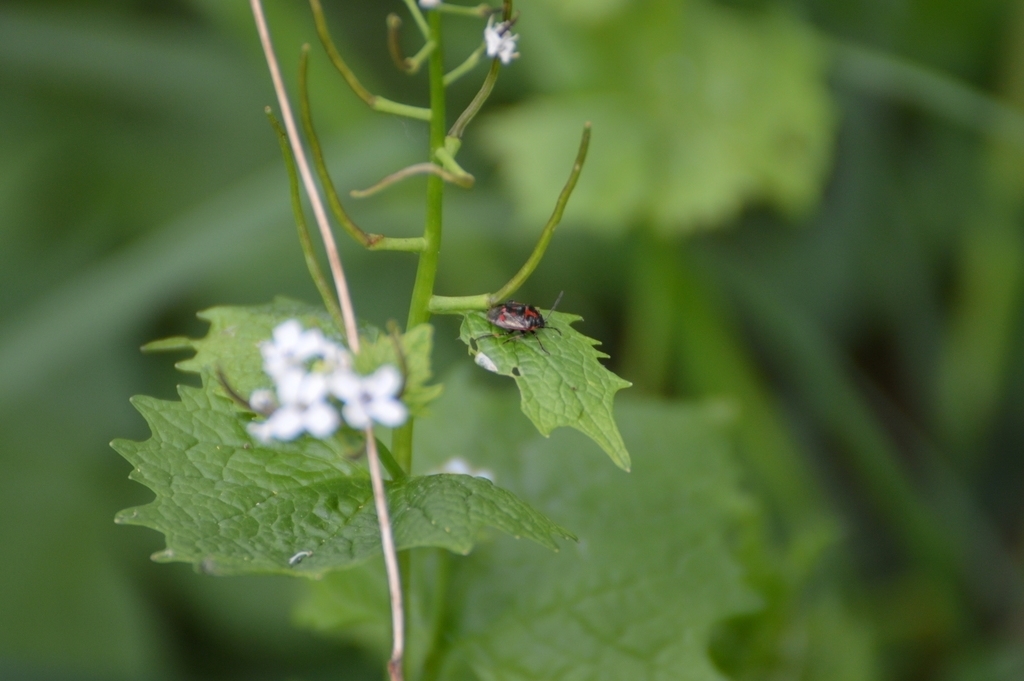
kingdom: Animalia
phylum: Arthropoda
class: Insecta
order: Hemiptera
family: Pentatomidae
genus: Eurydema
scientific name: Eurydema oleracea
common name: Cabbage bug
